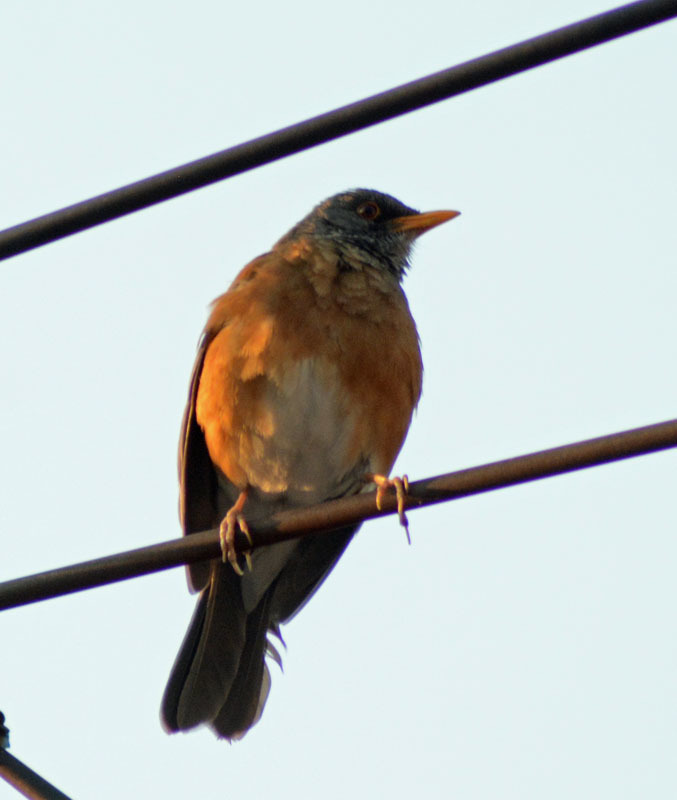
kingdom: Animalia
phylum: Chordata
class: Aves
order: Passeriformes
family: Turdidae
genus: Turdus
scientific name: Turdus rufopalliatus
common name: Rufous-backed robin
